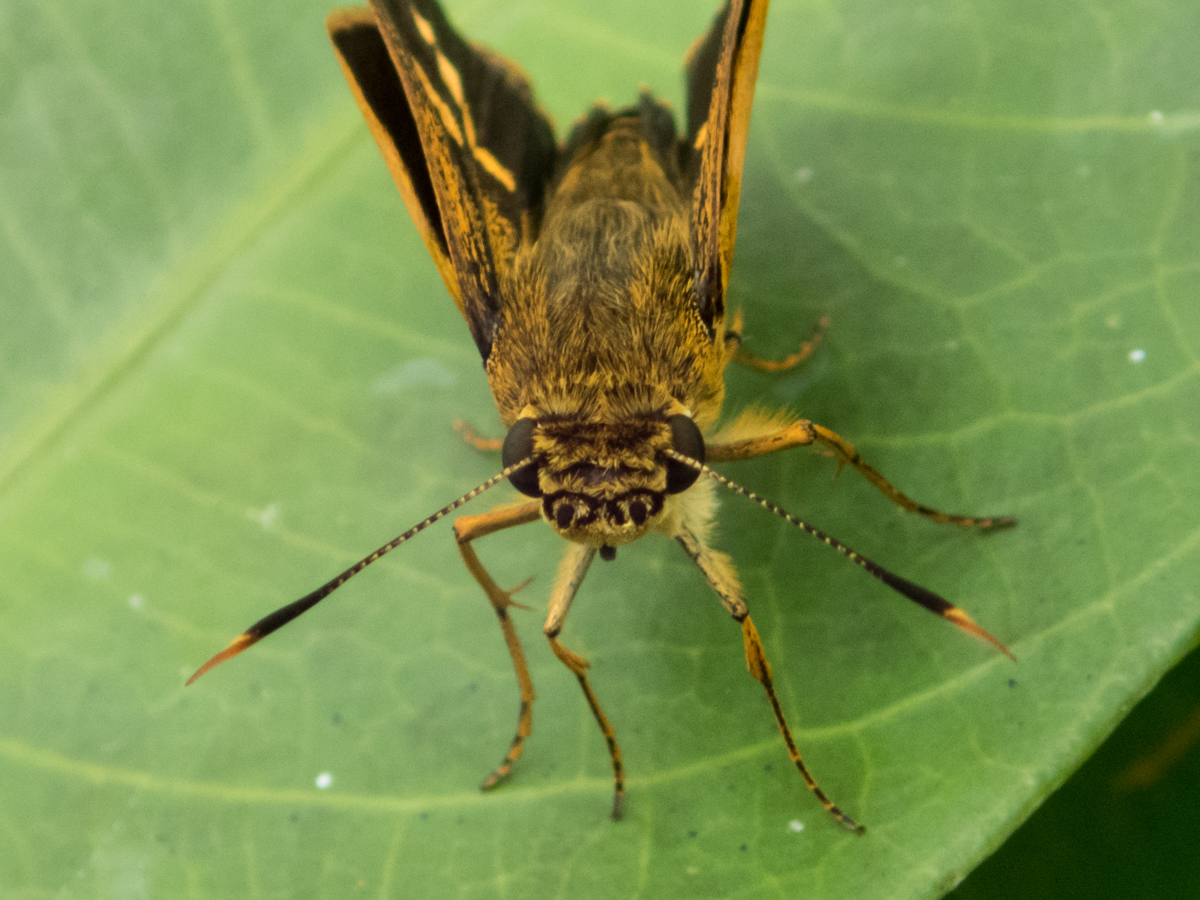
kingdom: Animalia
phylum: Arthropoda
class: Insecta
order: Lepidoptera
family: Hesperiidae
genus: Thoressa
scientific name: Thoressa masoni
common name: Golden ace
